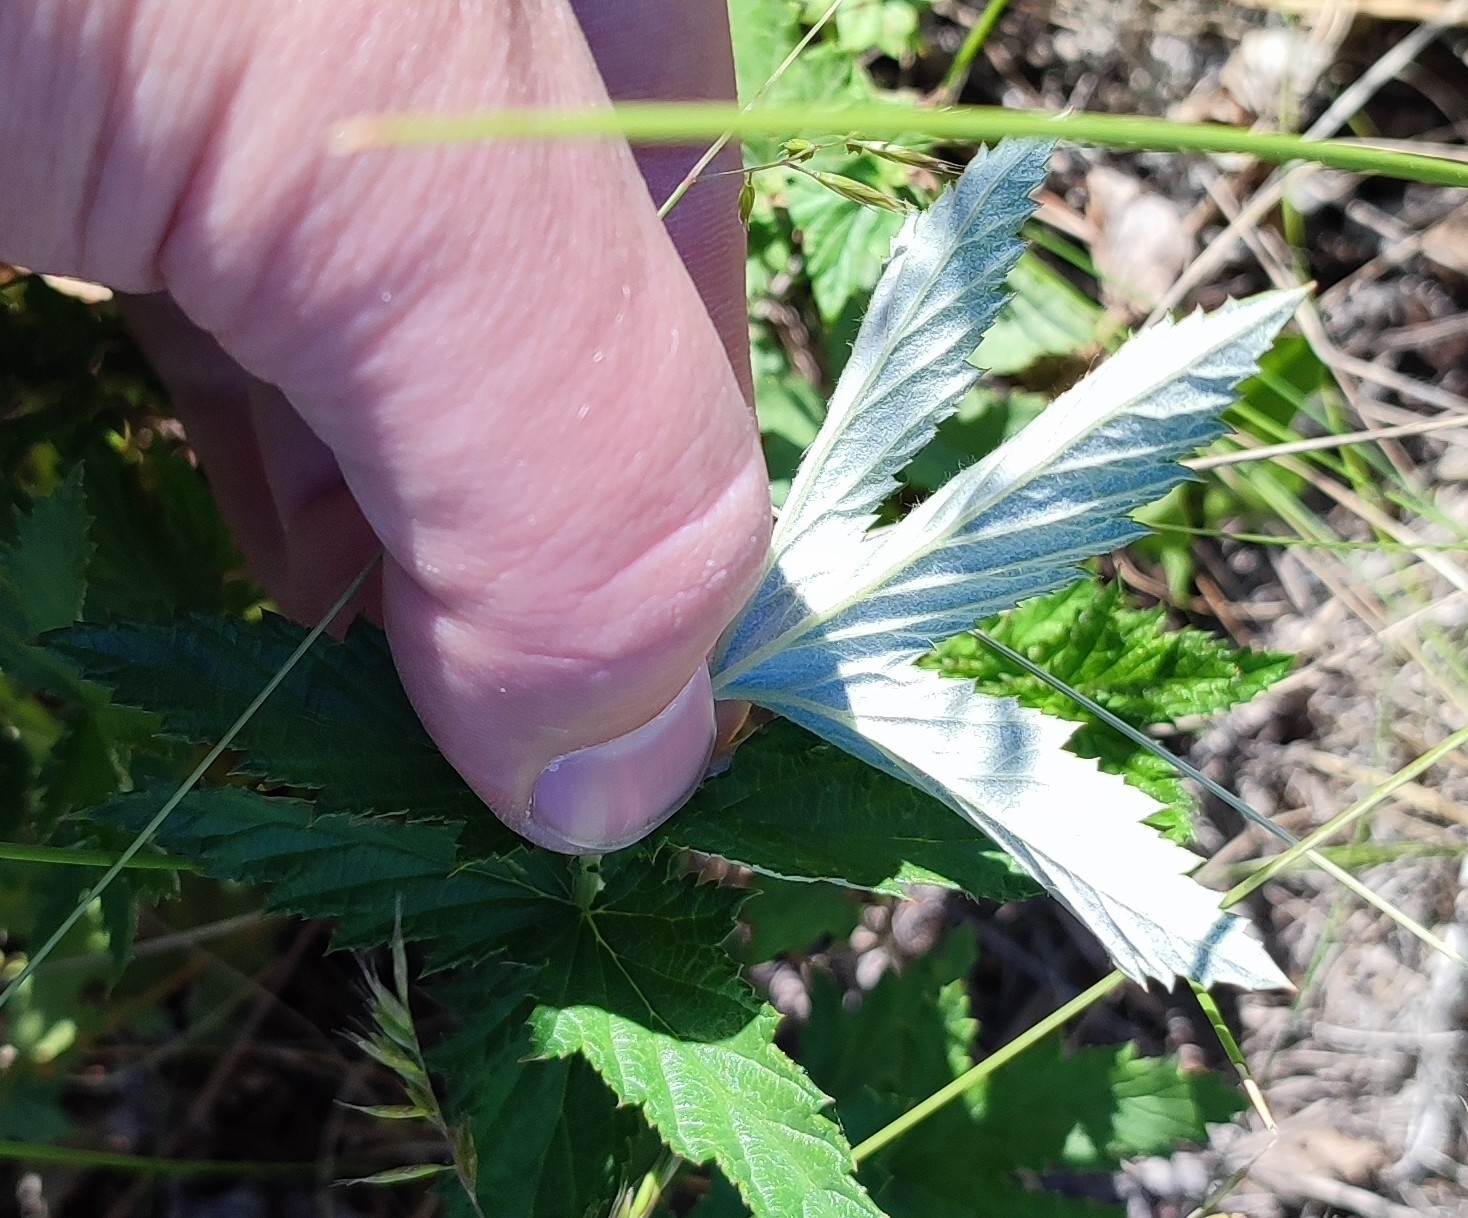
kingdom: Plantae
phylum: Tracheophyta
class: Magnoliopsida
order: Rosales
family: Rosaceae
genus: Filipendula
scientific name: Filipendula ulmaria
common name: Meadowsweet
